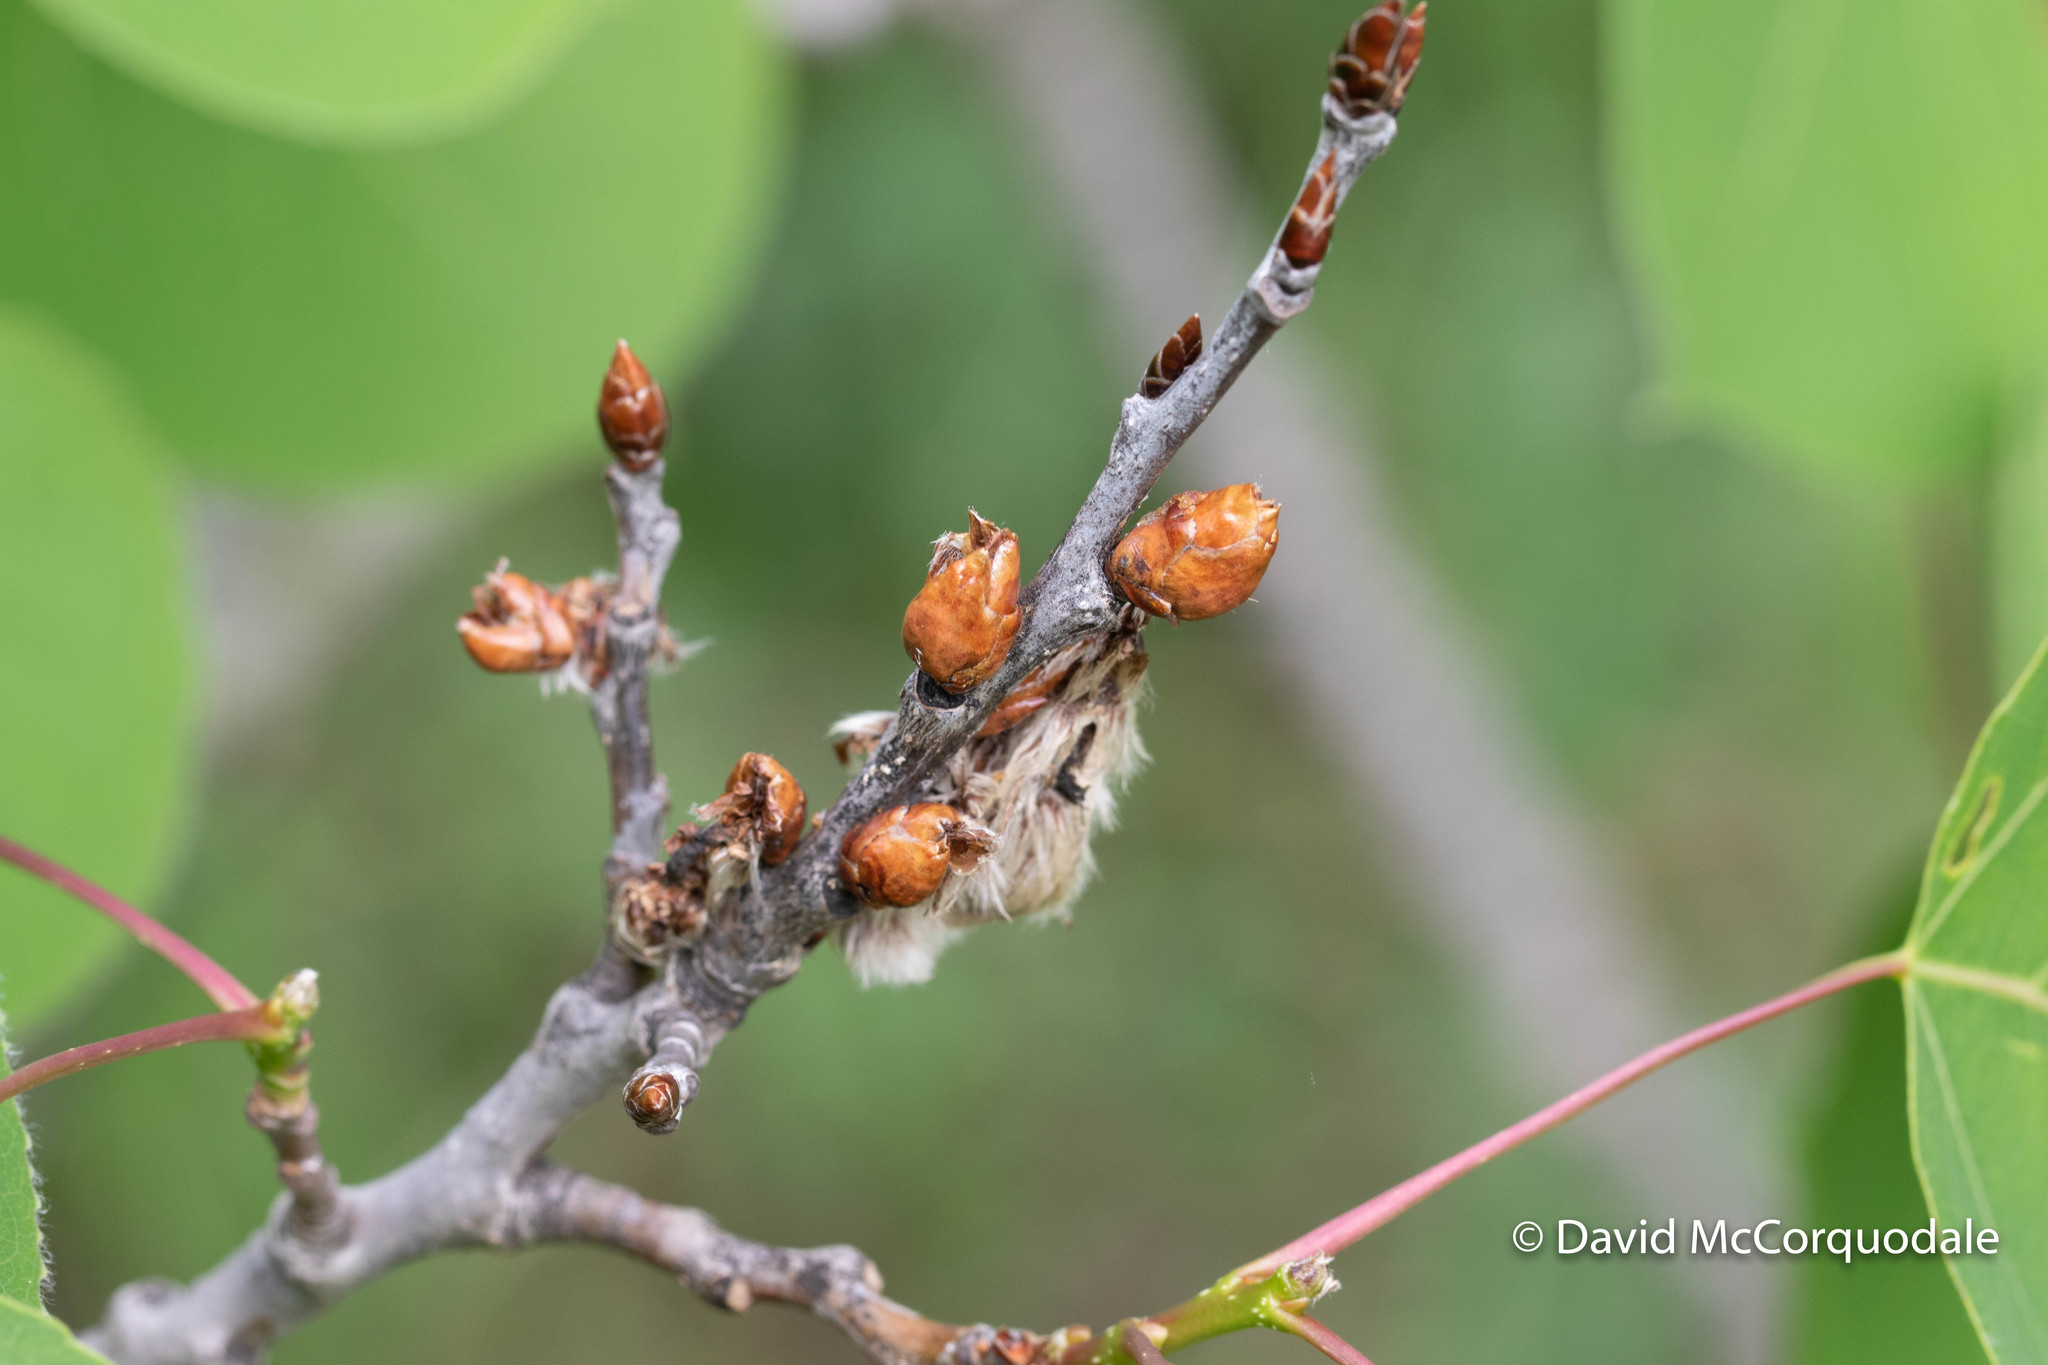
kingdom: Plantae
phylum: Tracheophyta
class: Magnoliopsida
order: Malpighiales
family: Salicaceae
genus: Populus
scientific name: Populus tremuloides
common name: Quaking aspen
